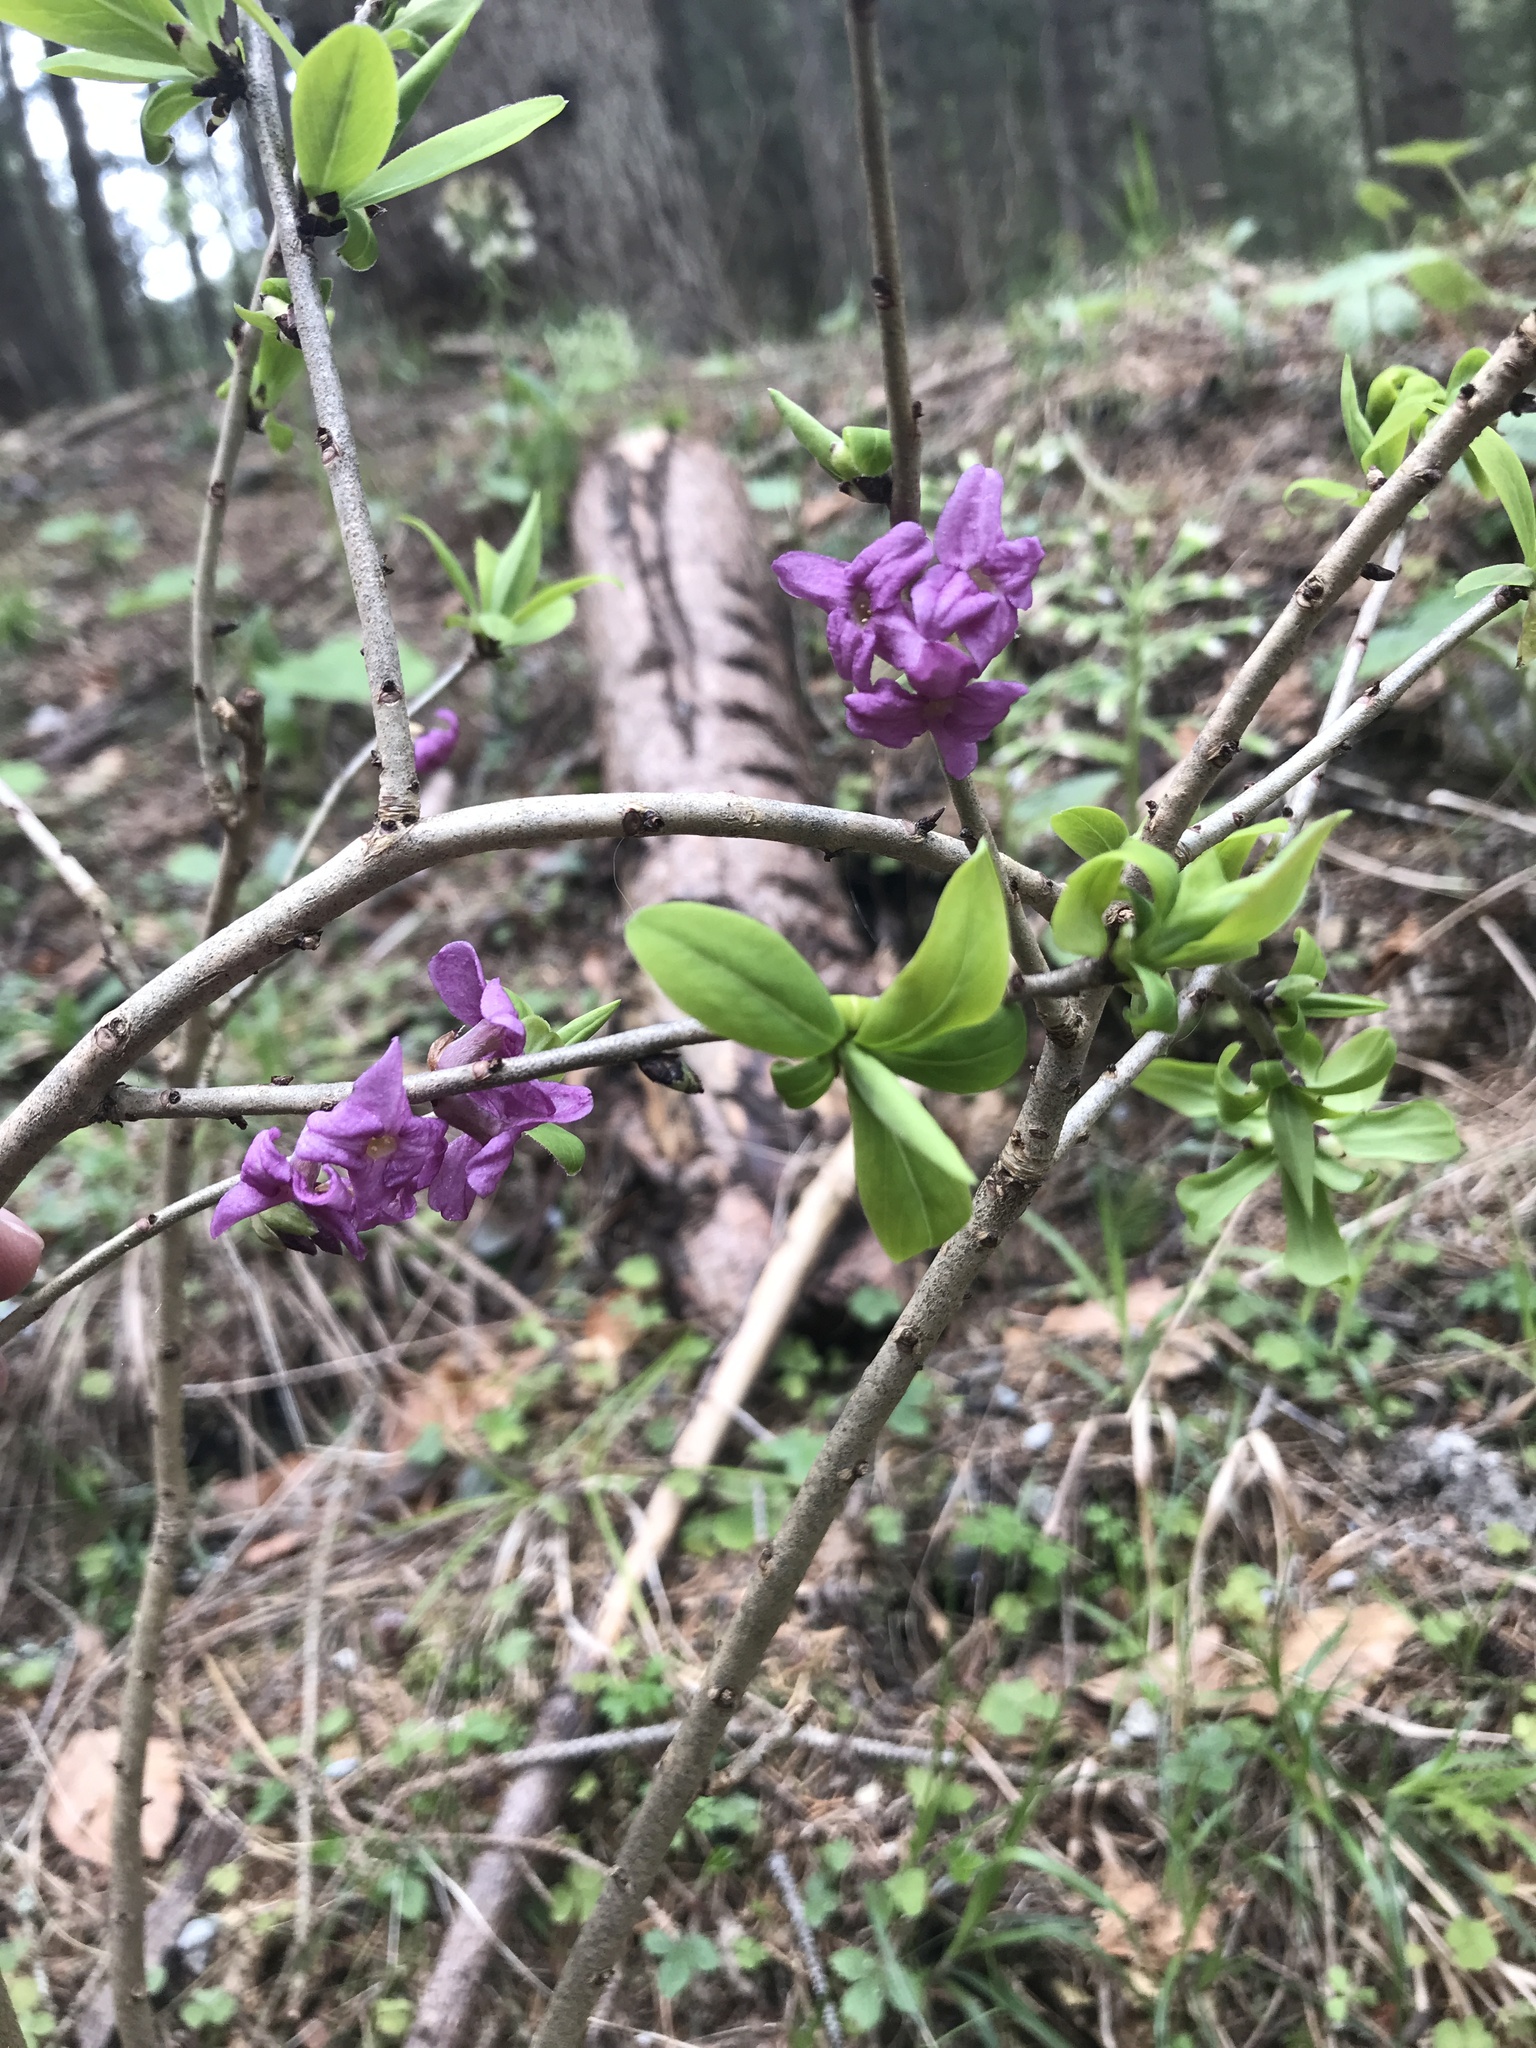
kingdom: Plantae
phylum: Tracheophyta
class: Magnoliopsida
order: Malvales
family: Thymelaeaceae
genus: Daphne
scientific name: Daphne mezereum
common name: Mezereon
